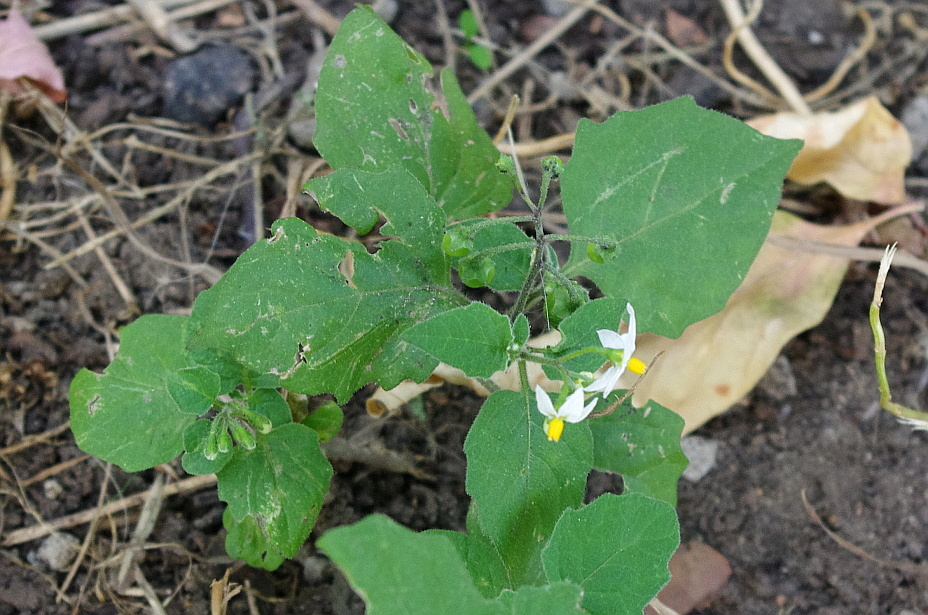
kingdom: Plantae
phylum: Tracheophyta
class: Magnoliopsida
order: Solanales
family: Solanaceae
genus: Solanum
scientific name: Solanum nigrum
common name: Black nightshade
